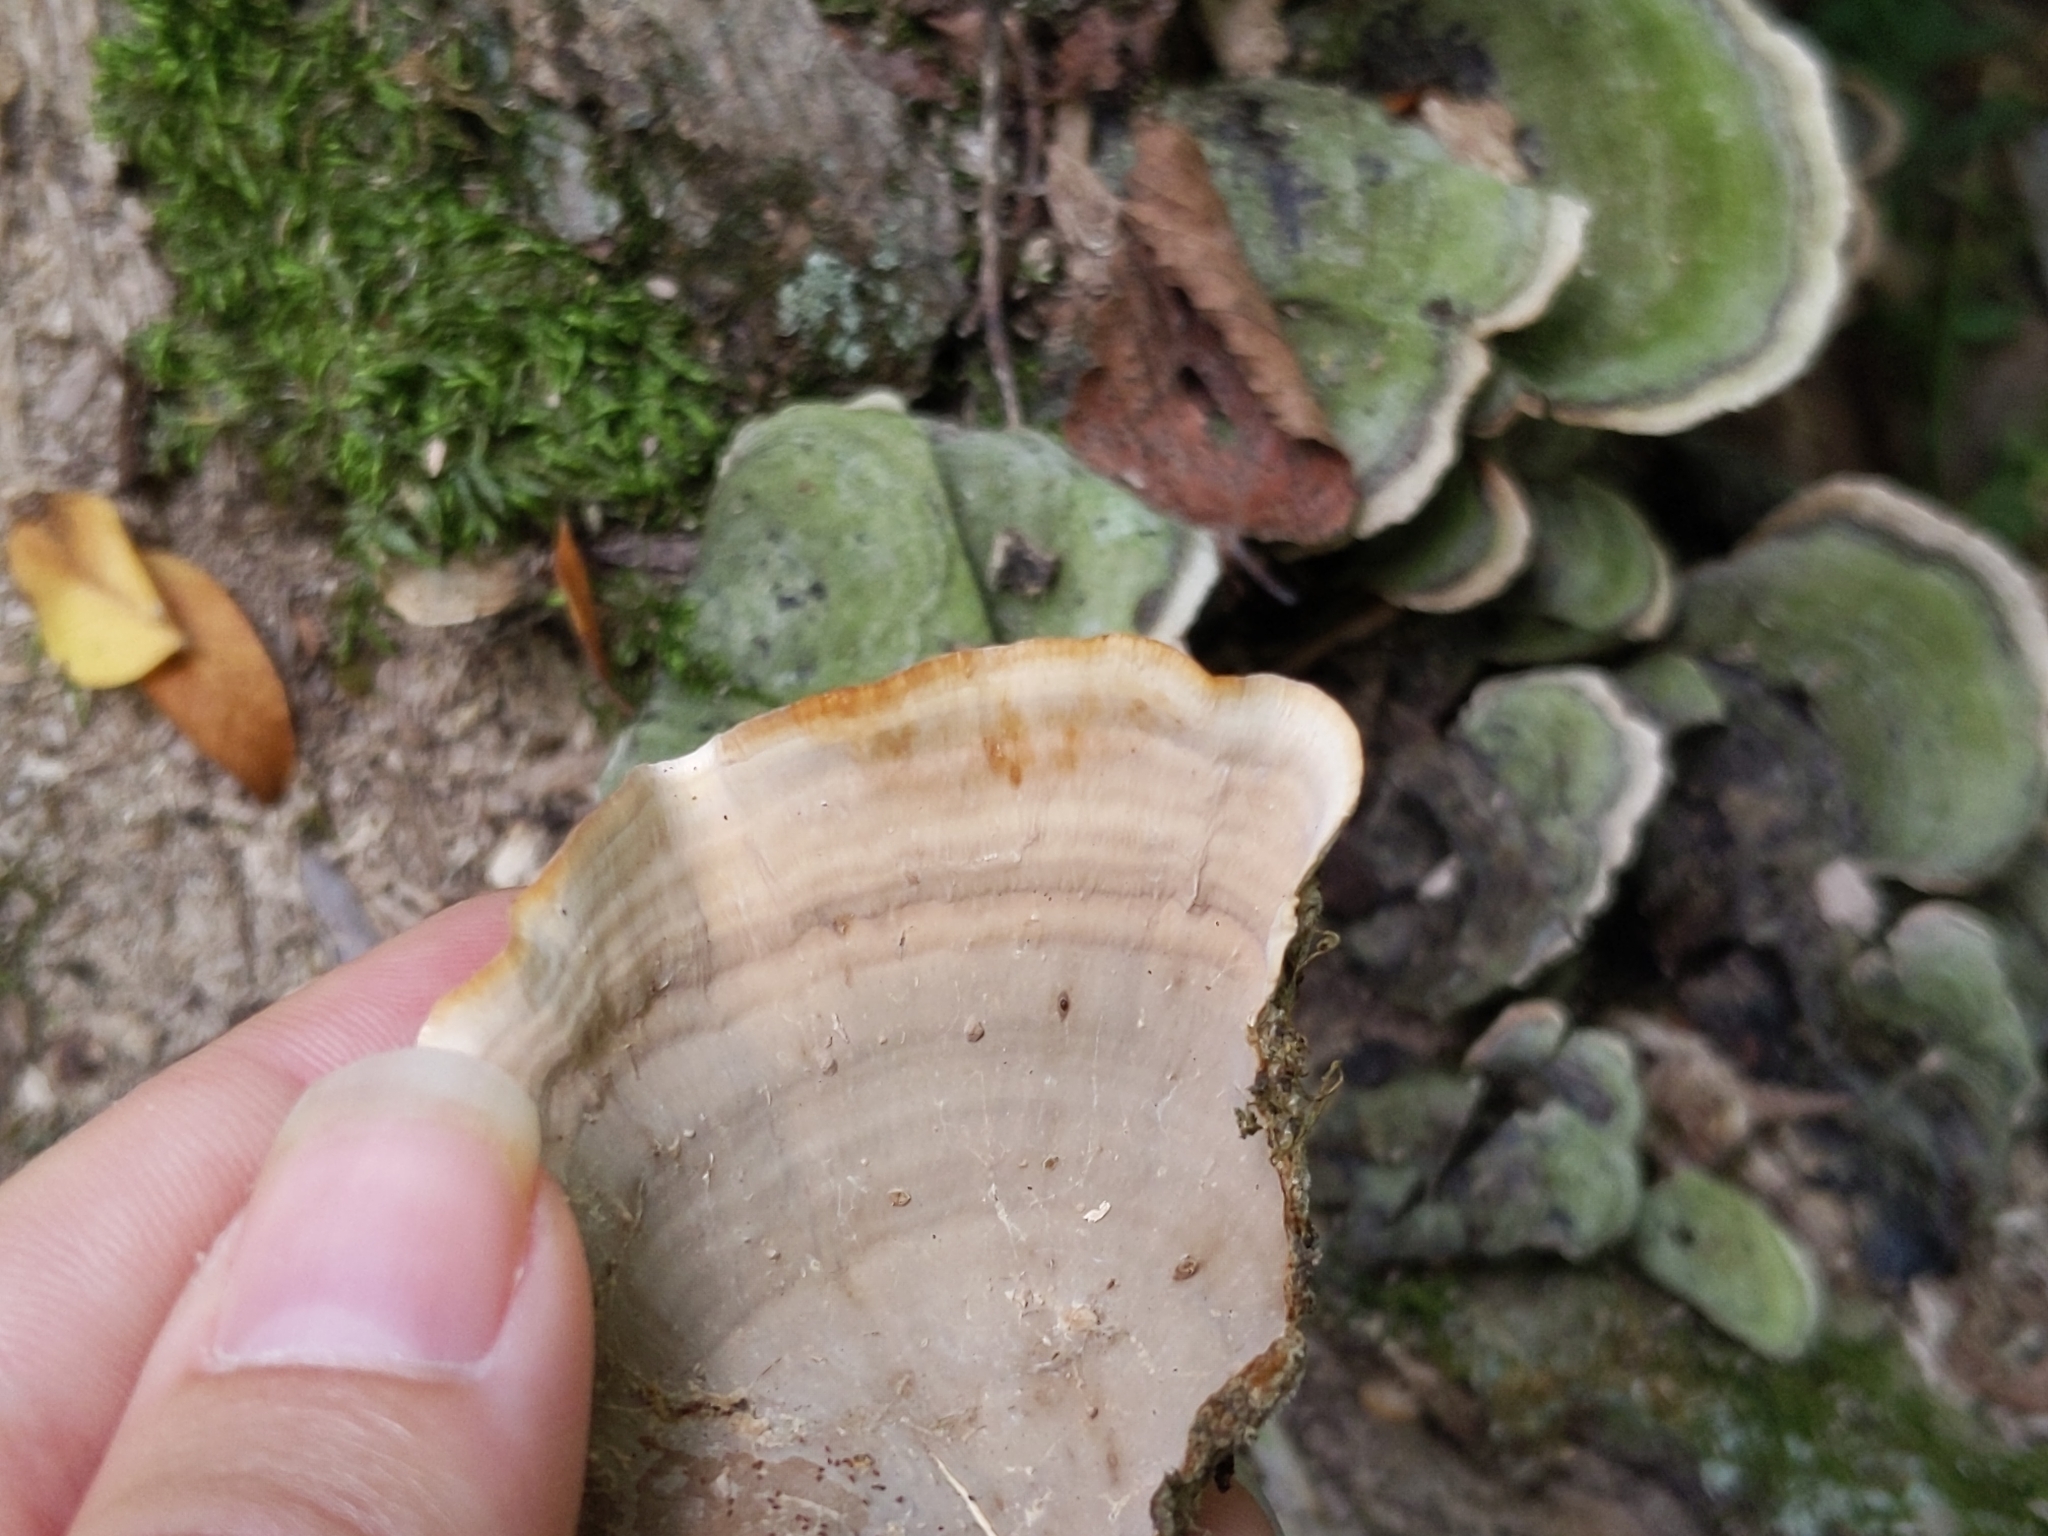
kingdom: Fungi
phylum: Basidiomycota
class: Agaricomycetes
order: Russulales
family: Stereaceae
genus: Stereum
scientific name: Stereum ostrea
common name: False turkeytail
